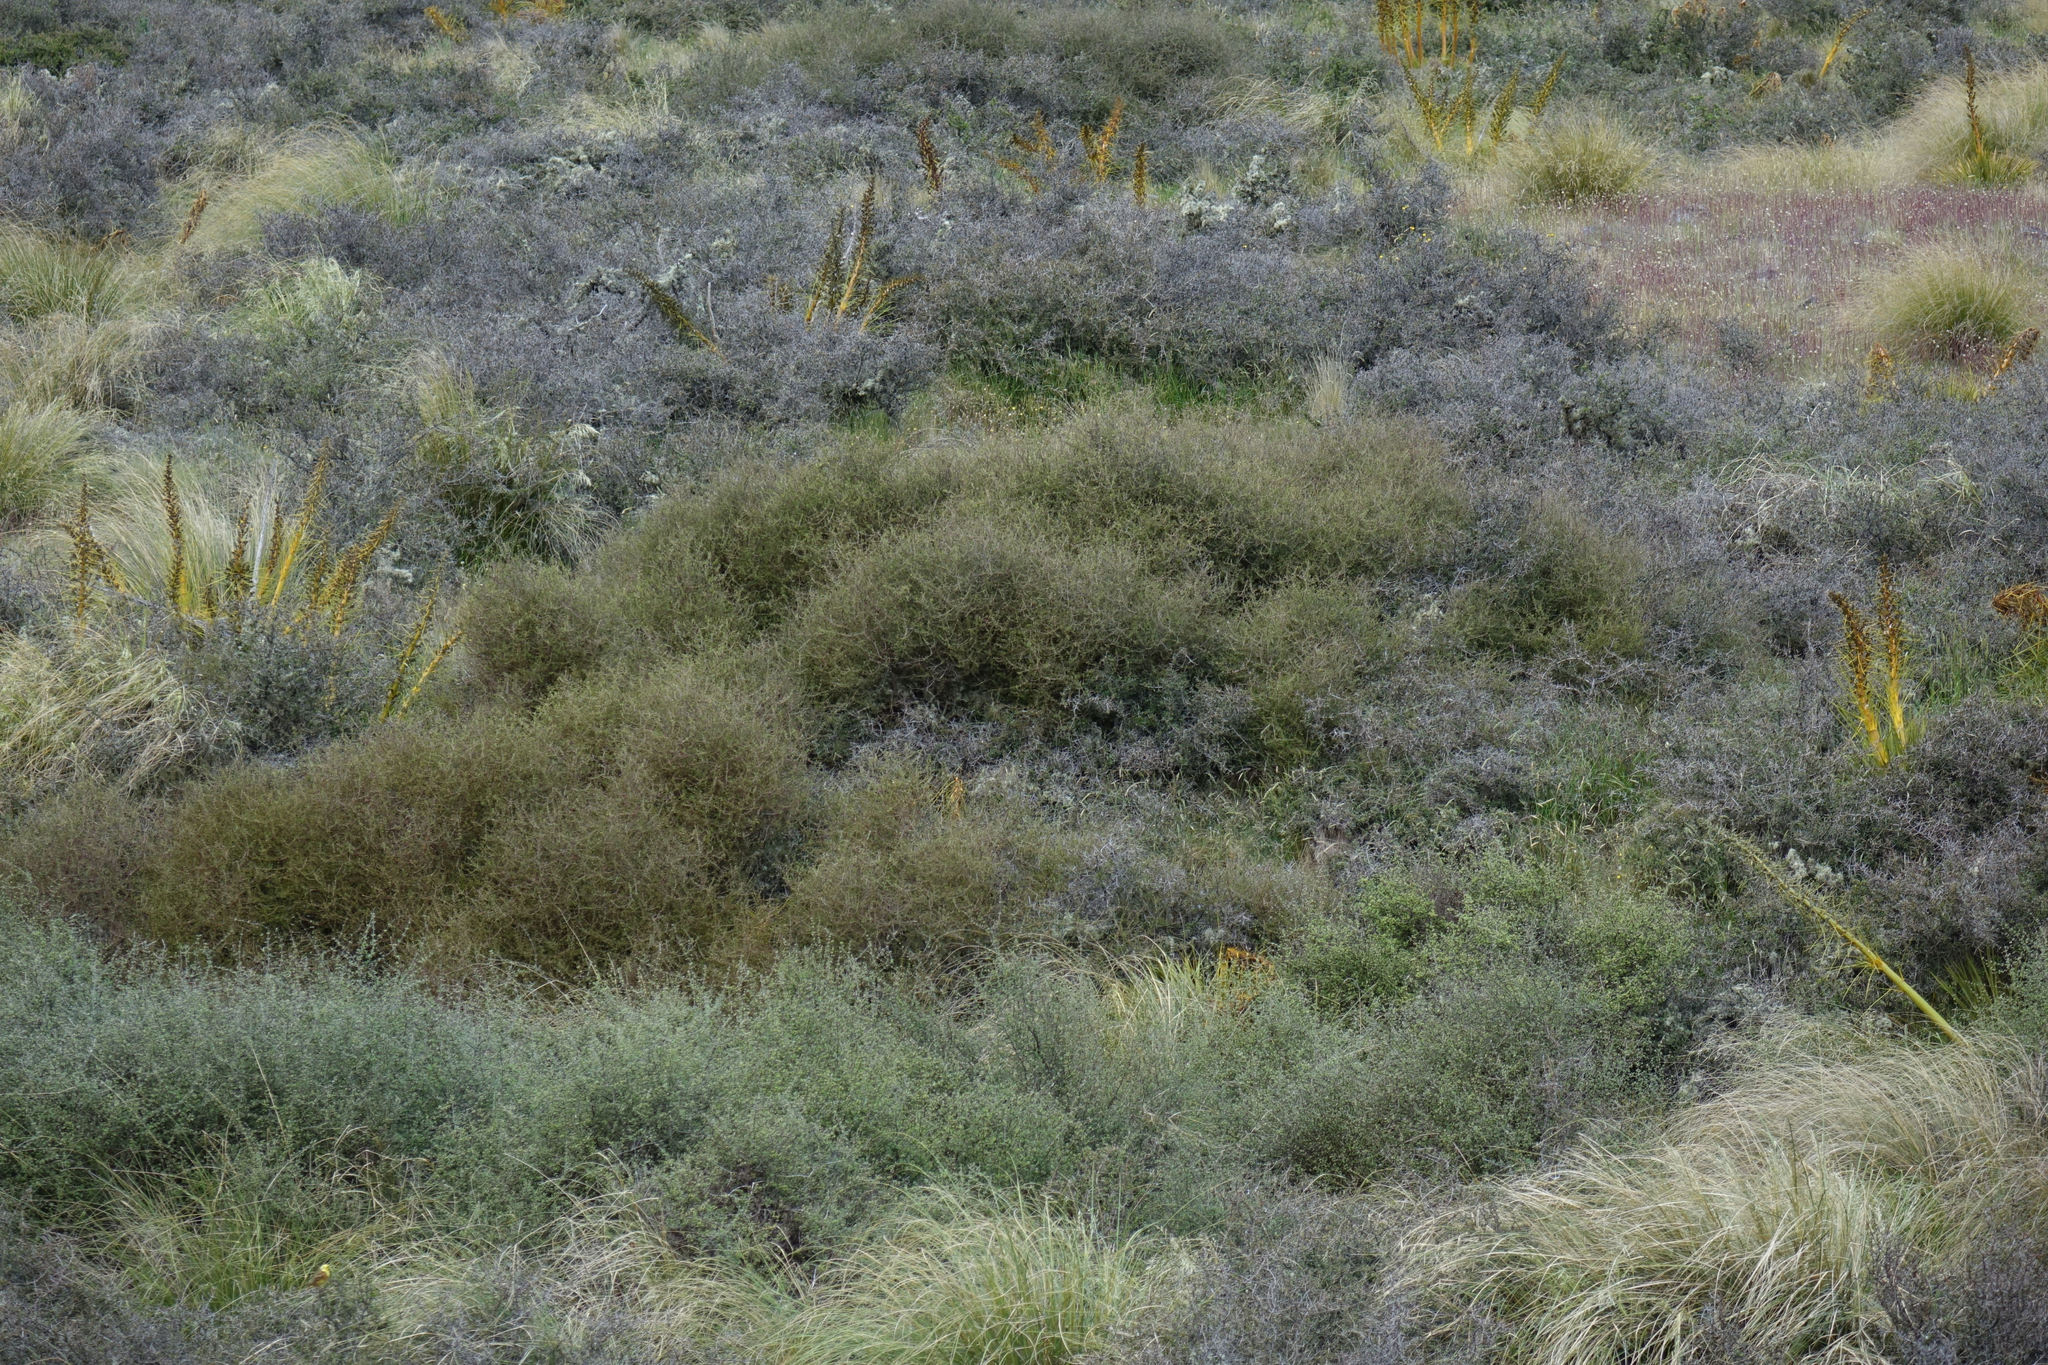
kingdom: Plantae
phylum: Tracheophyta
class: Magnoliopsida
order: Gentianales
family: Rubiaceae
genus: Coprosma
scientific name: Coprosma intertexta
